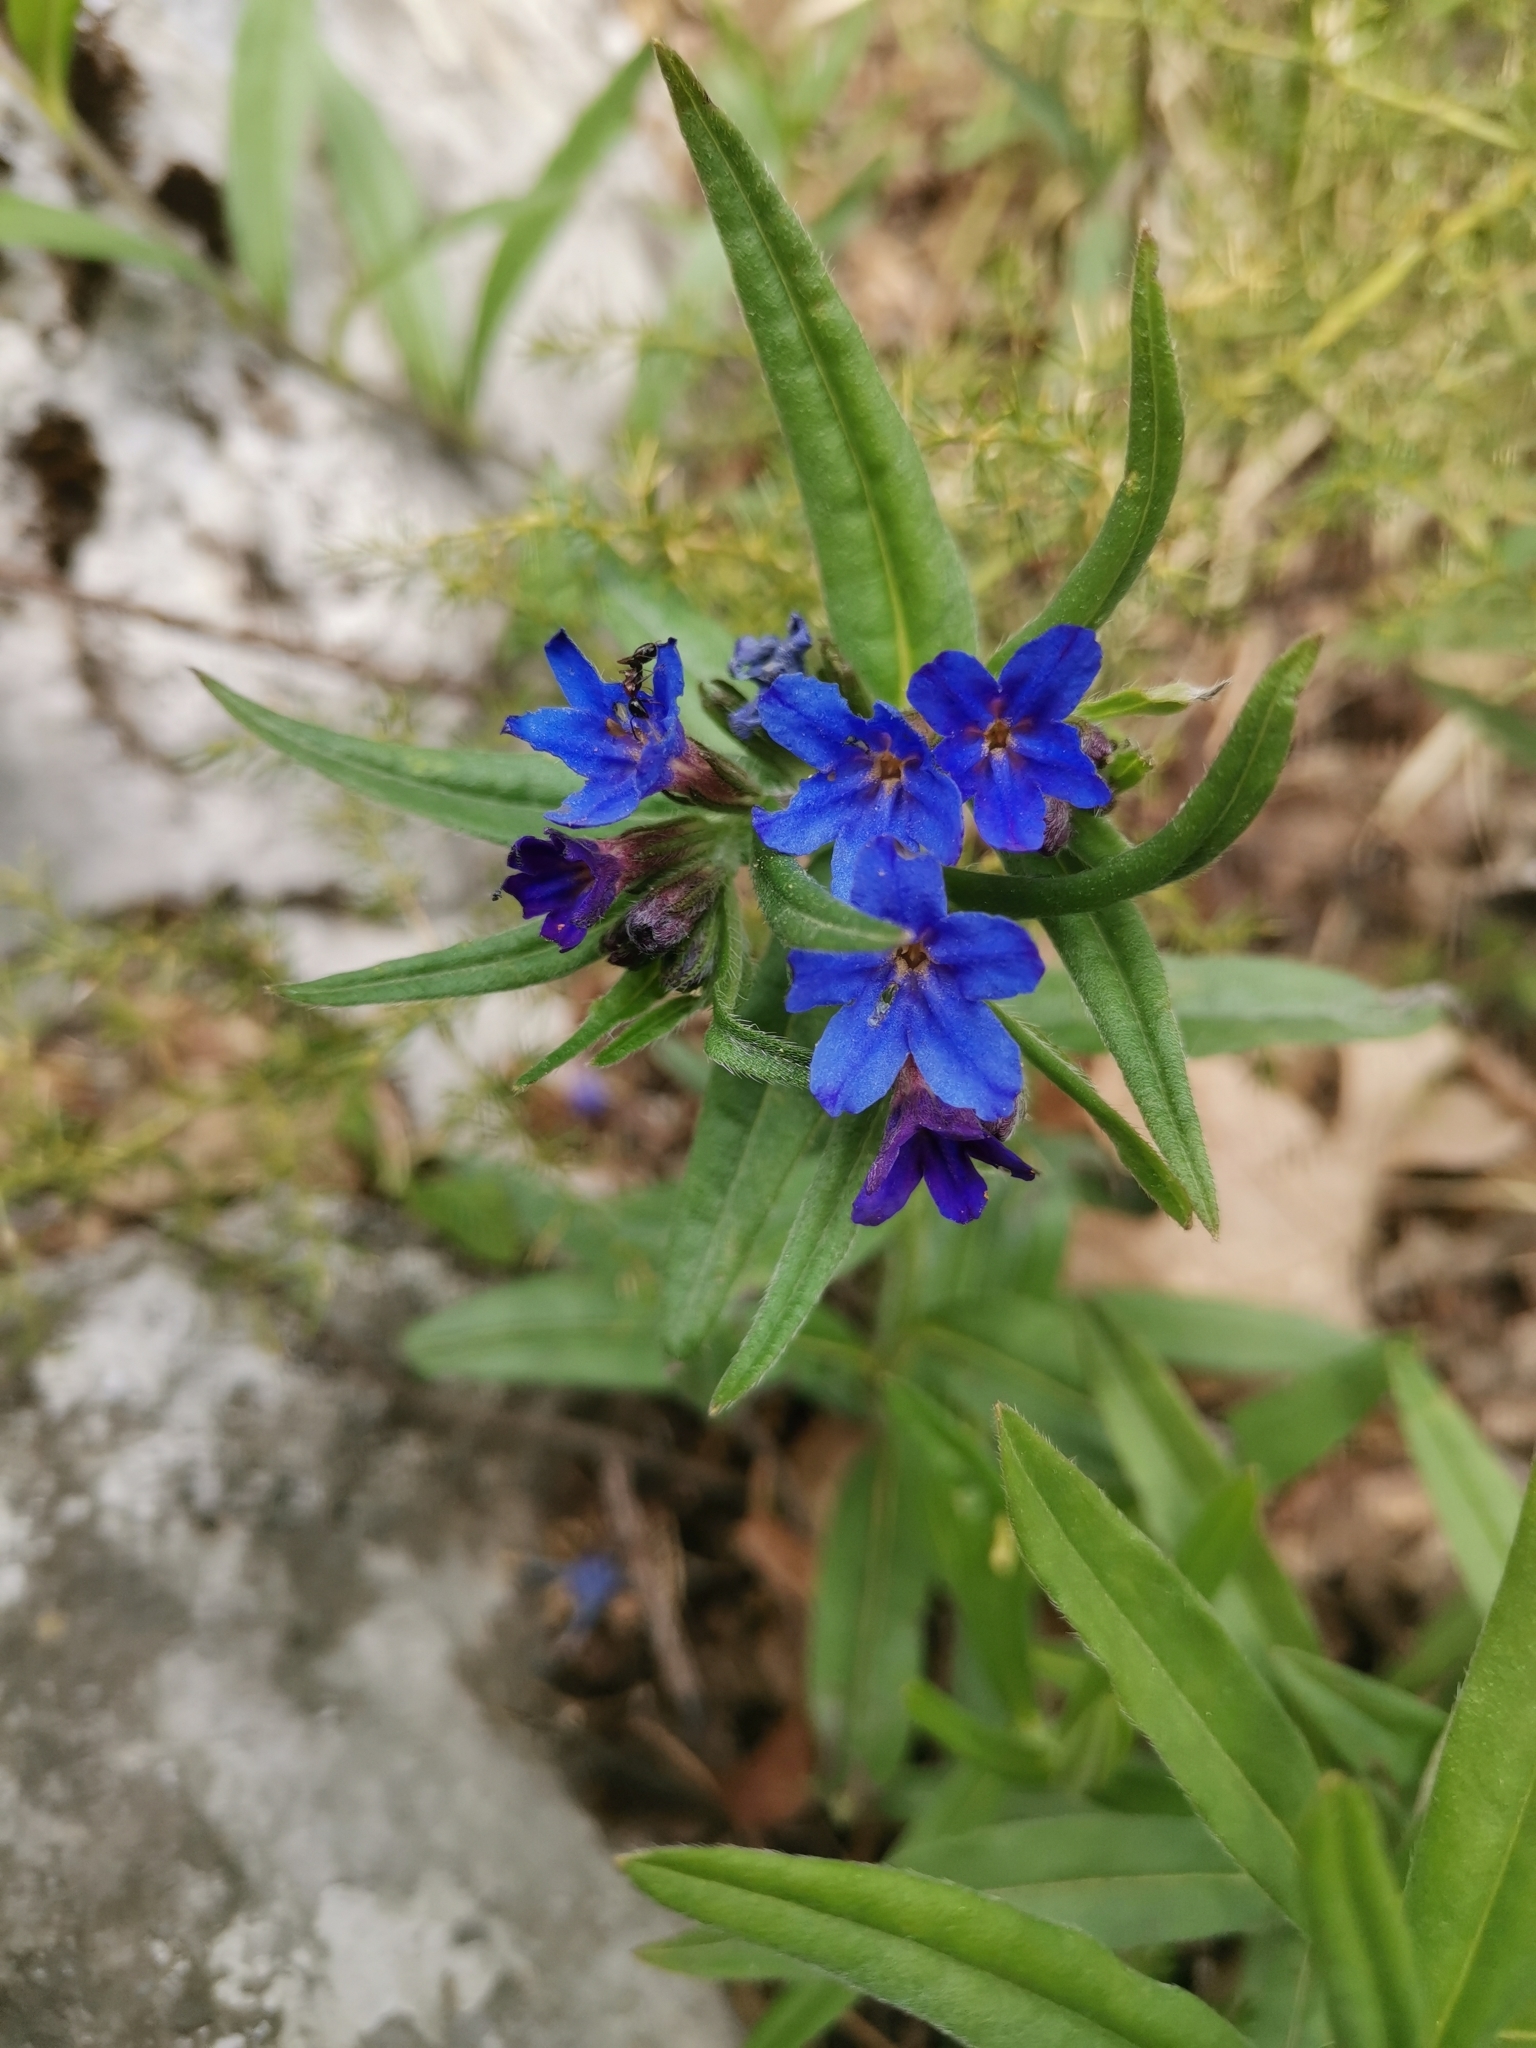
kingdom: Plantae
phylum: Tracheophyta
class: Magnoliopsida
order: Boraginales
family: Boraginaceae
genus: Aegonychon
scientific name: Aegonychon purpurocaeruleum
